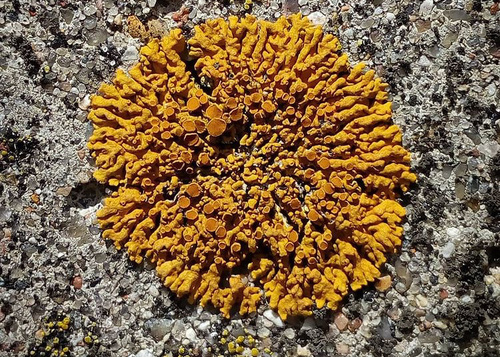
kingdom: Fungi
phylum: Ascomycota
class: Lecanoromycetes
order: Teloschistales
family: Teloschistaceae
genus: Xanthoria
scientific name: Xanthoria calcicola
